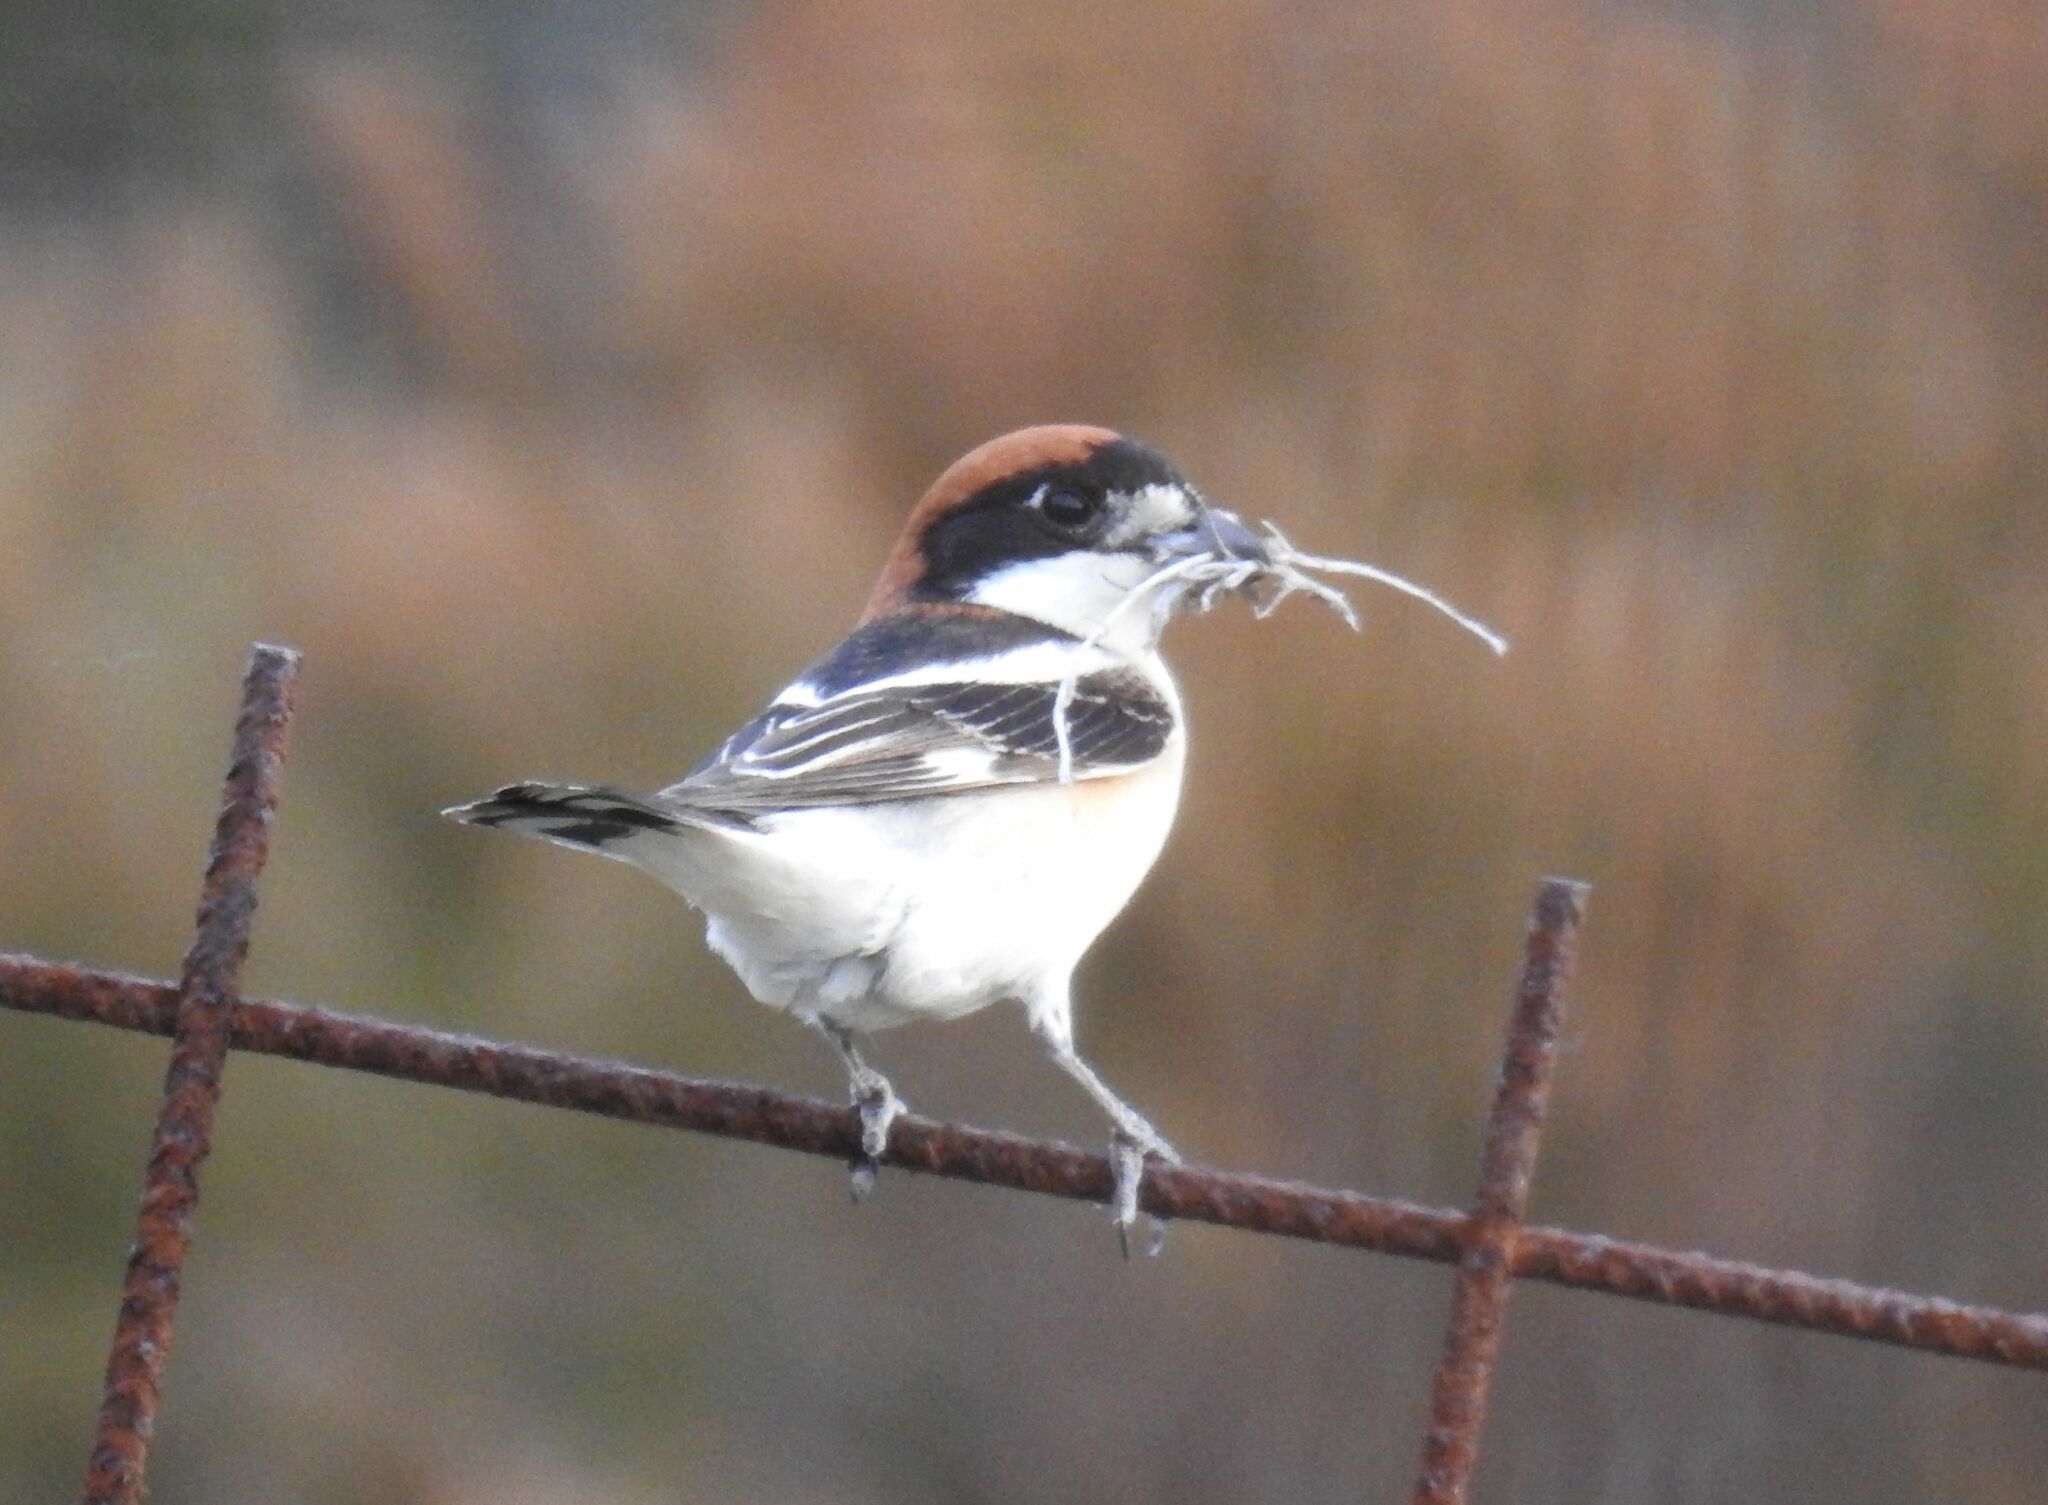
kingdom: Animalia
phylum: Chordata
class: Aves
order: Passeriformes
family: Laniidae
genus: Lanius
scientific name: Lanius senator
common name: Woodchat shrike
